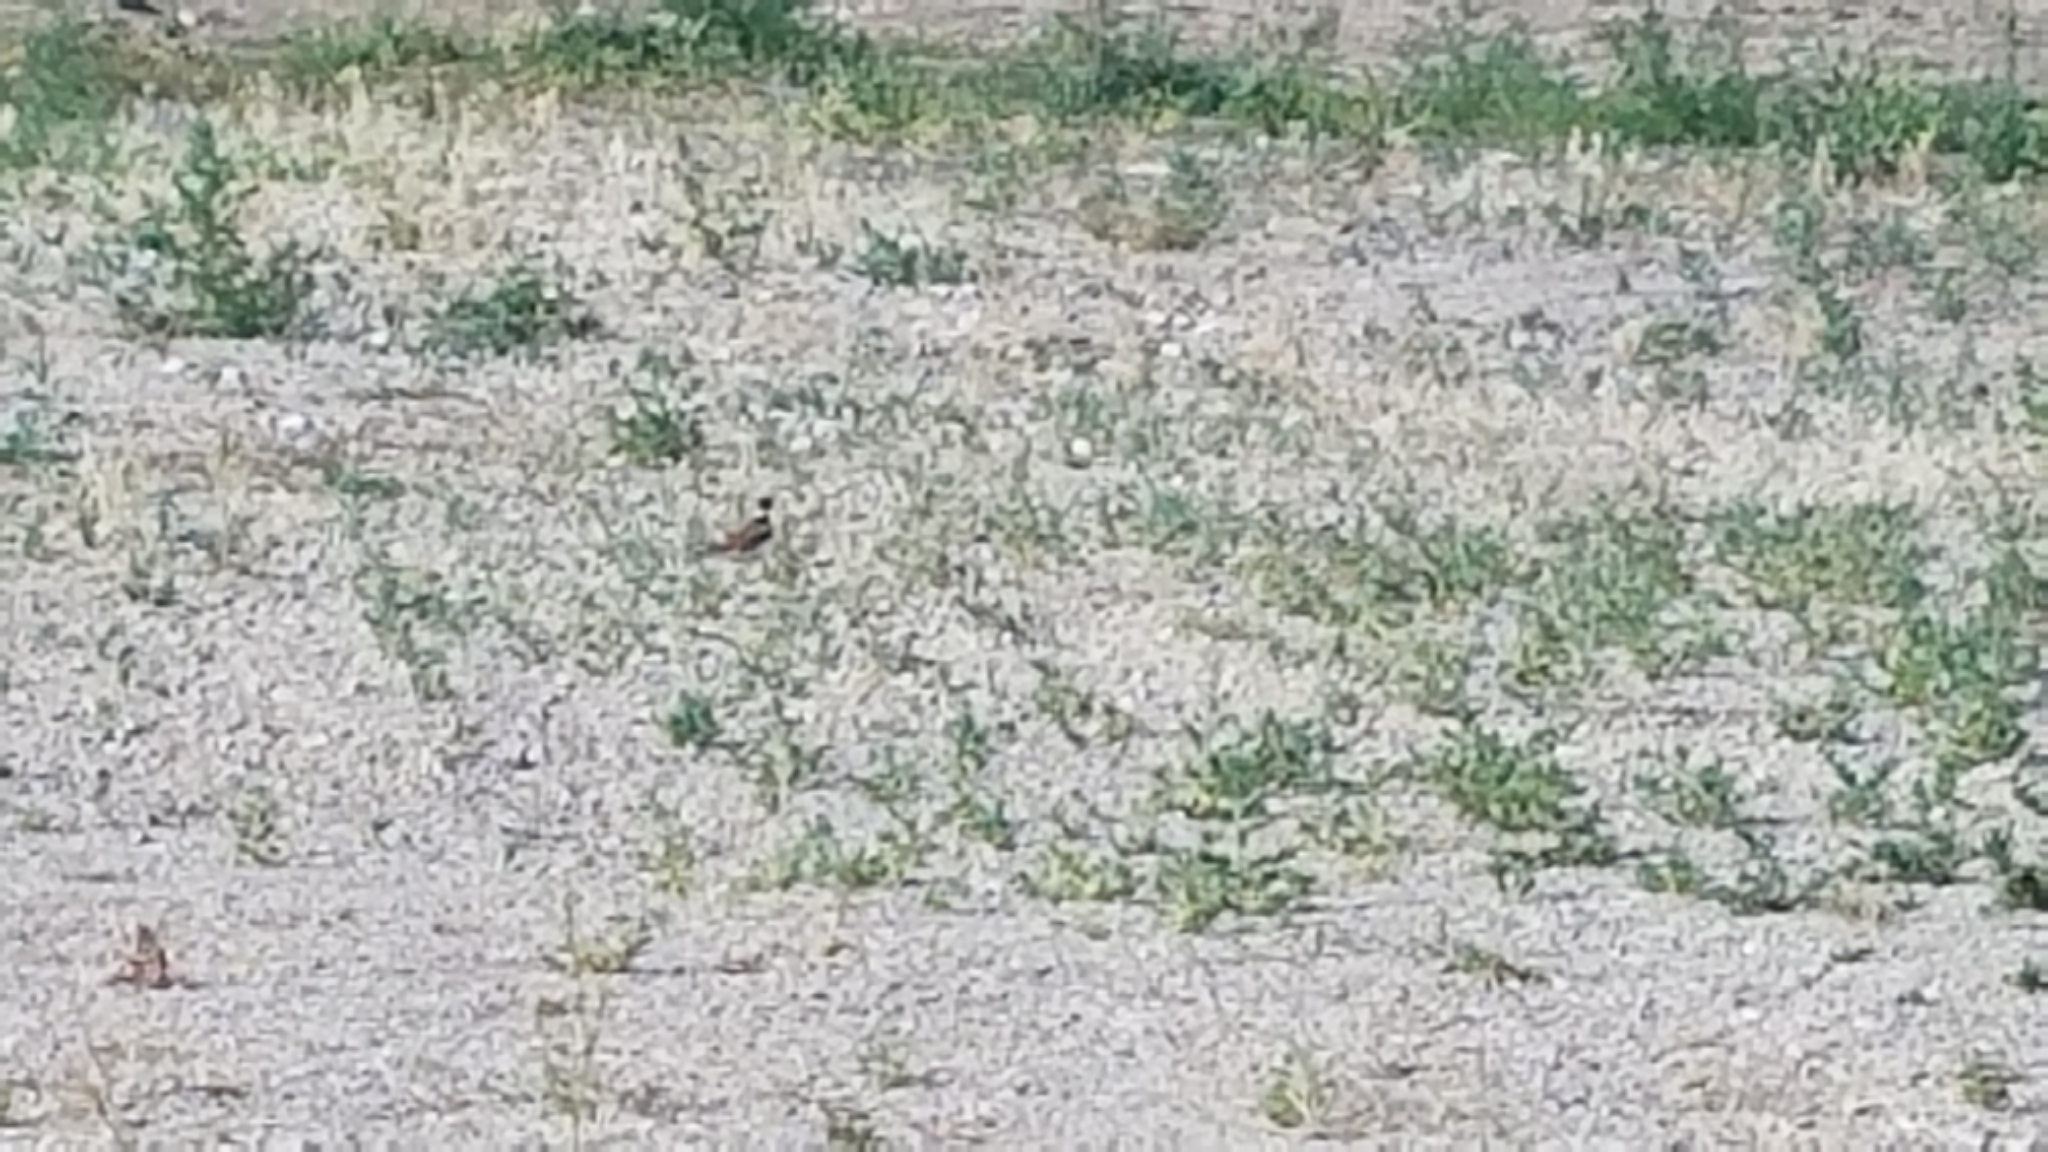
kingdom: Animalia
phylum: Chordata
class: Aves
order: Charadriiformes
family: Charadriidae
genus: Charadrius
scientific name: Charadrius vociferus
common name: Killdeer
